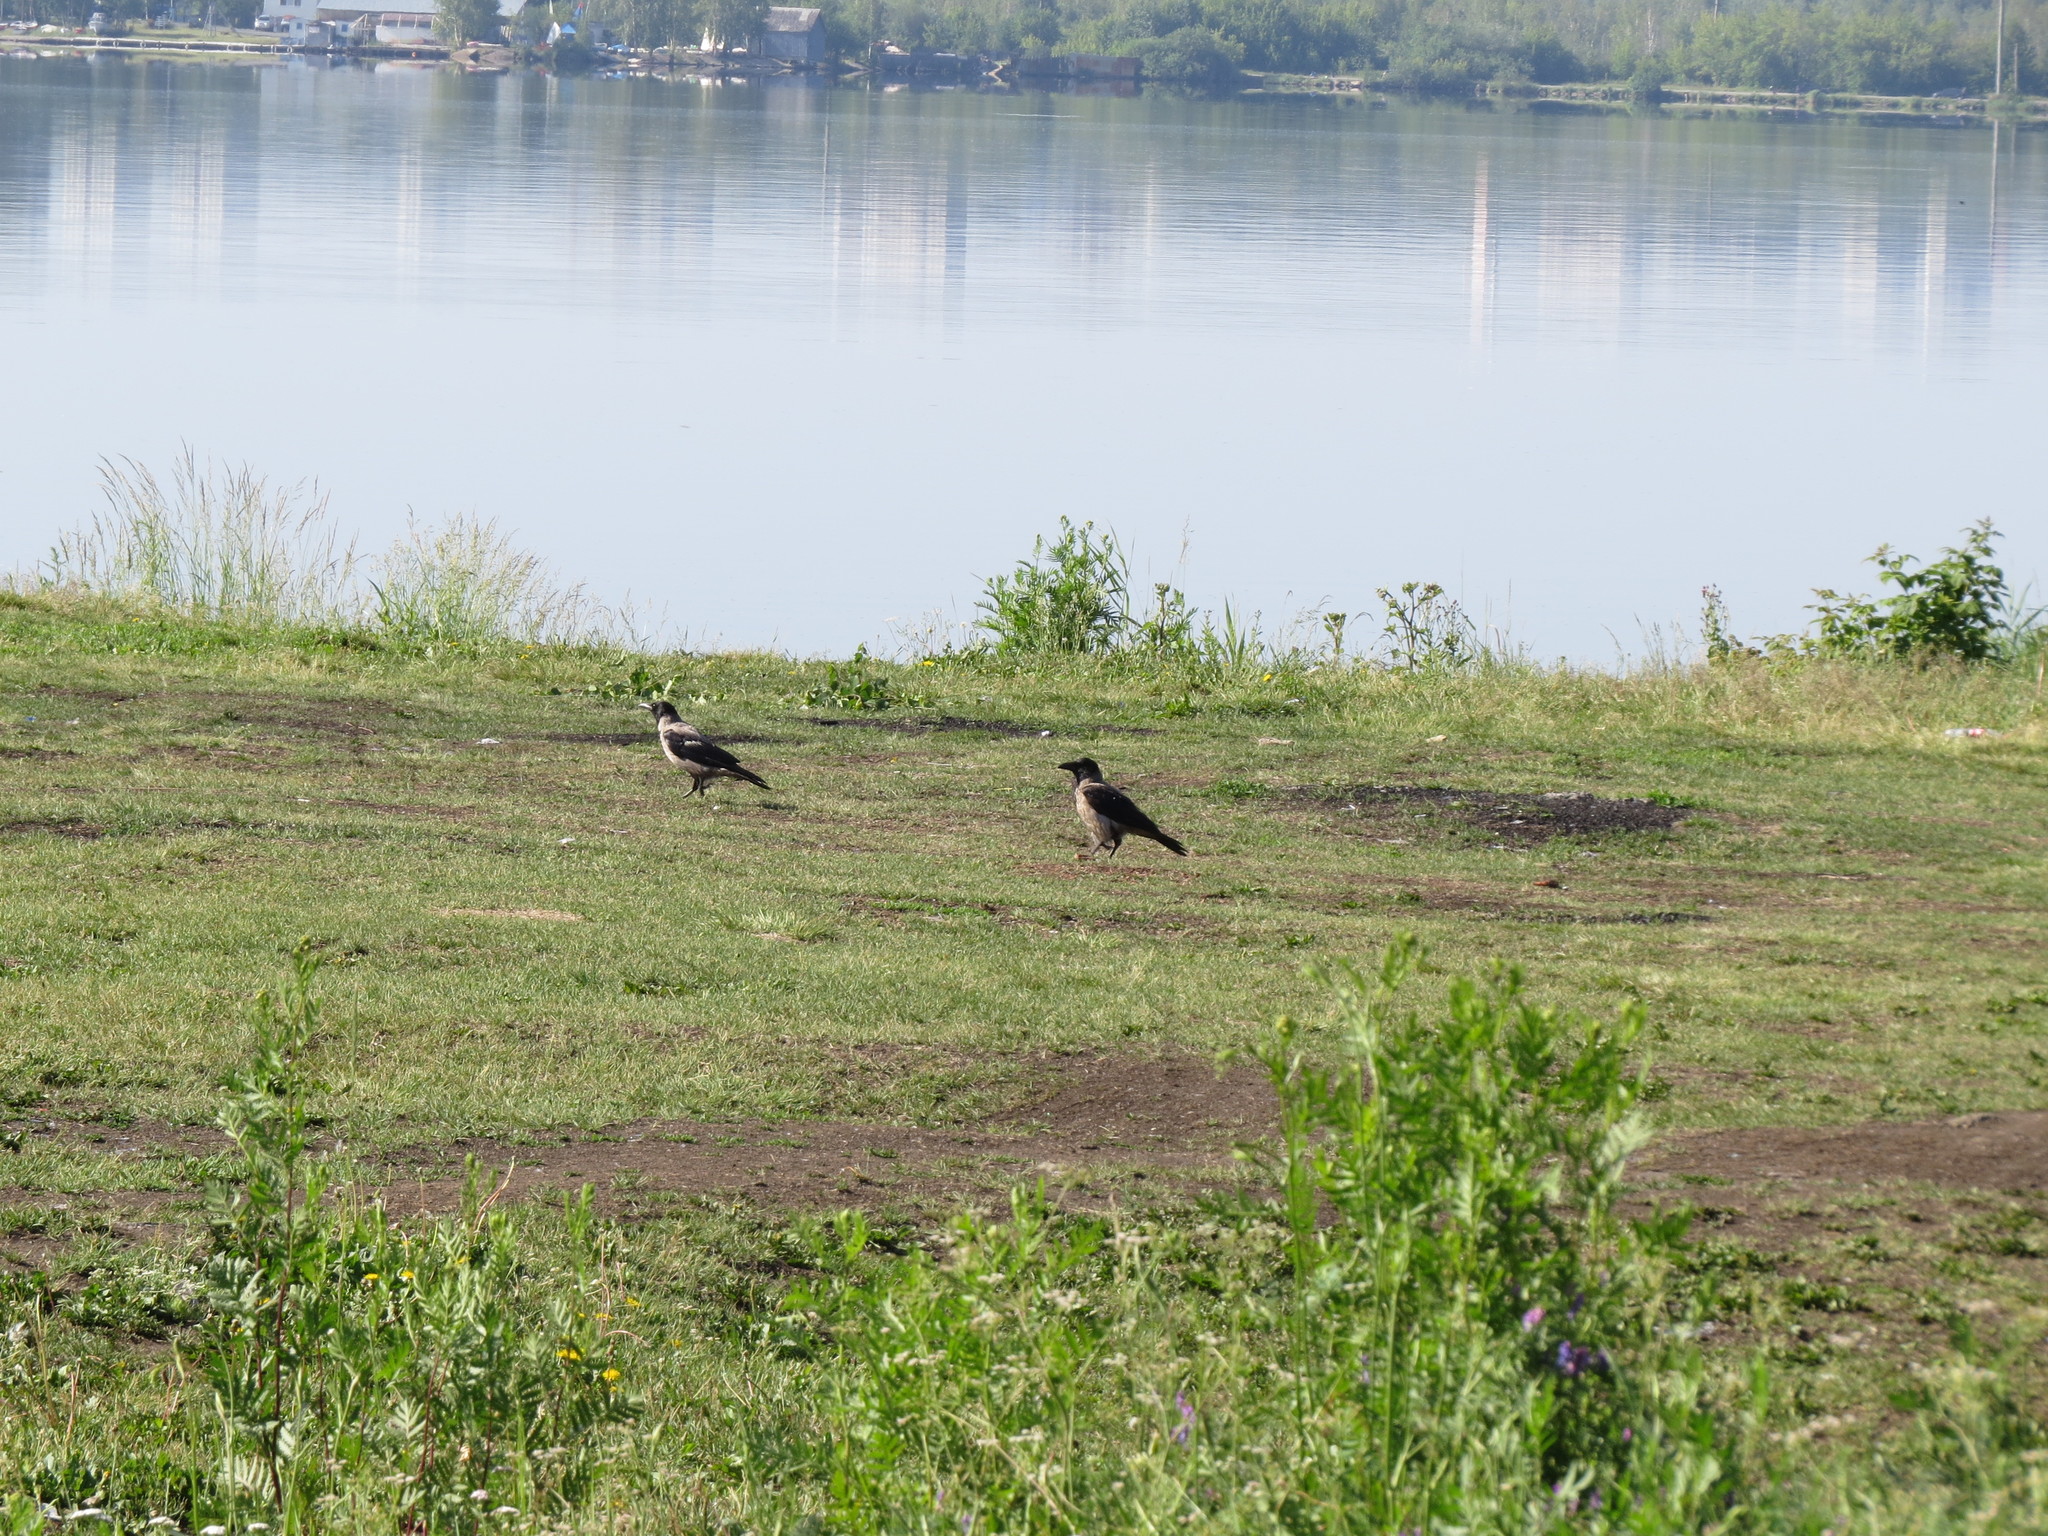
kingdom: Animalia
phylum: Chordata
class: Aves
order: Passeriformes
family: Corvidae
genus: Corvus
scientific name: Corvus cornix
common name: Hooded crow
